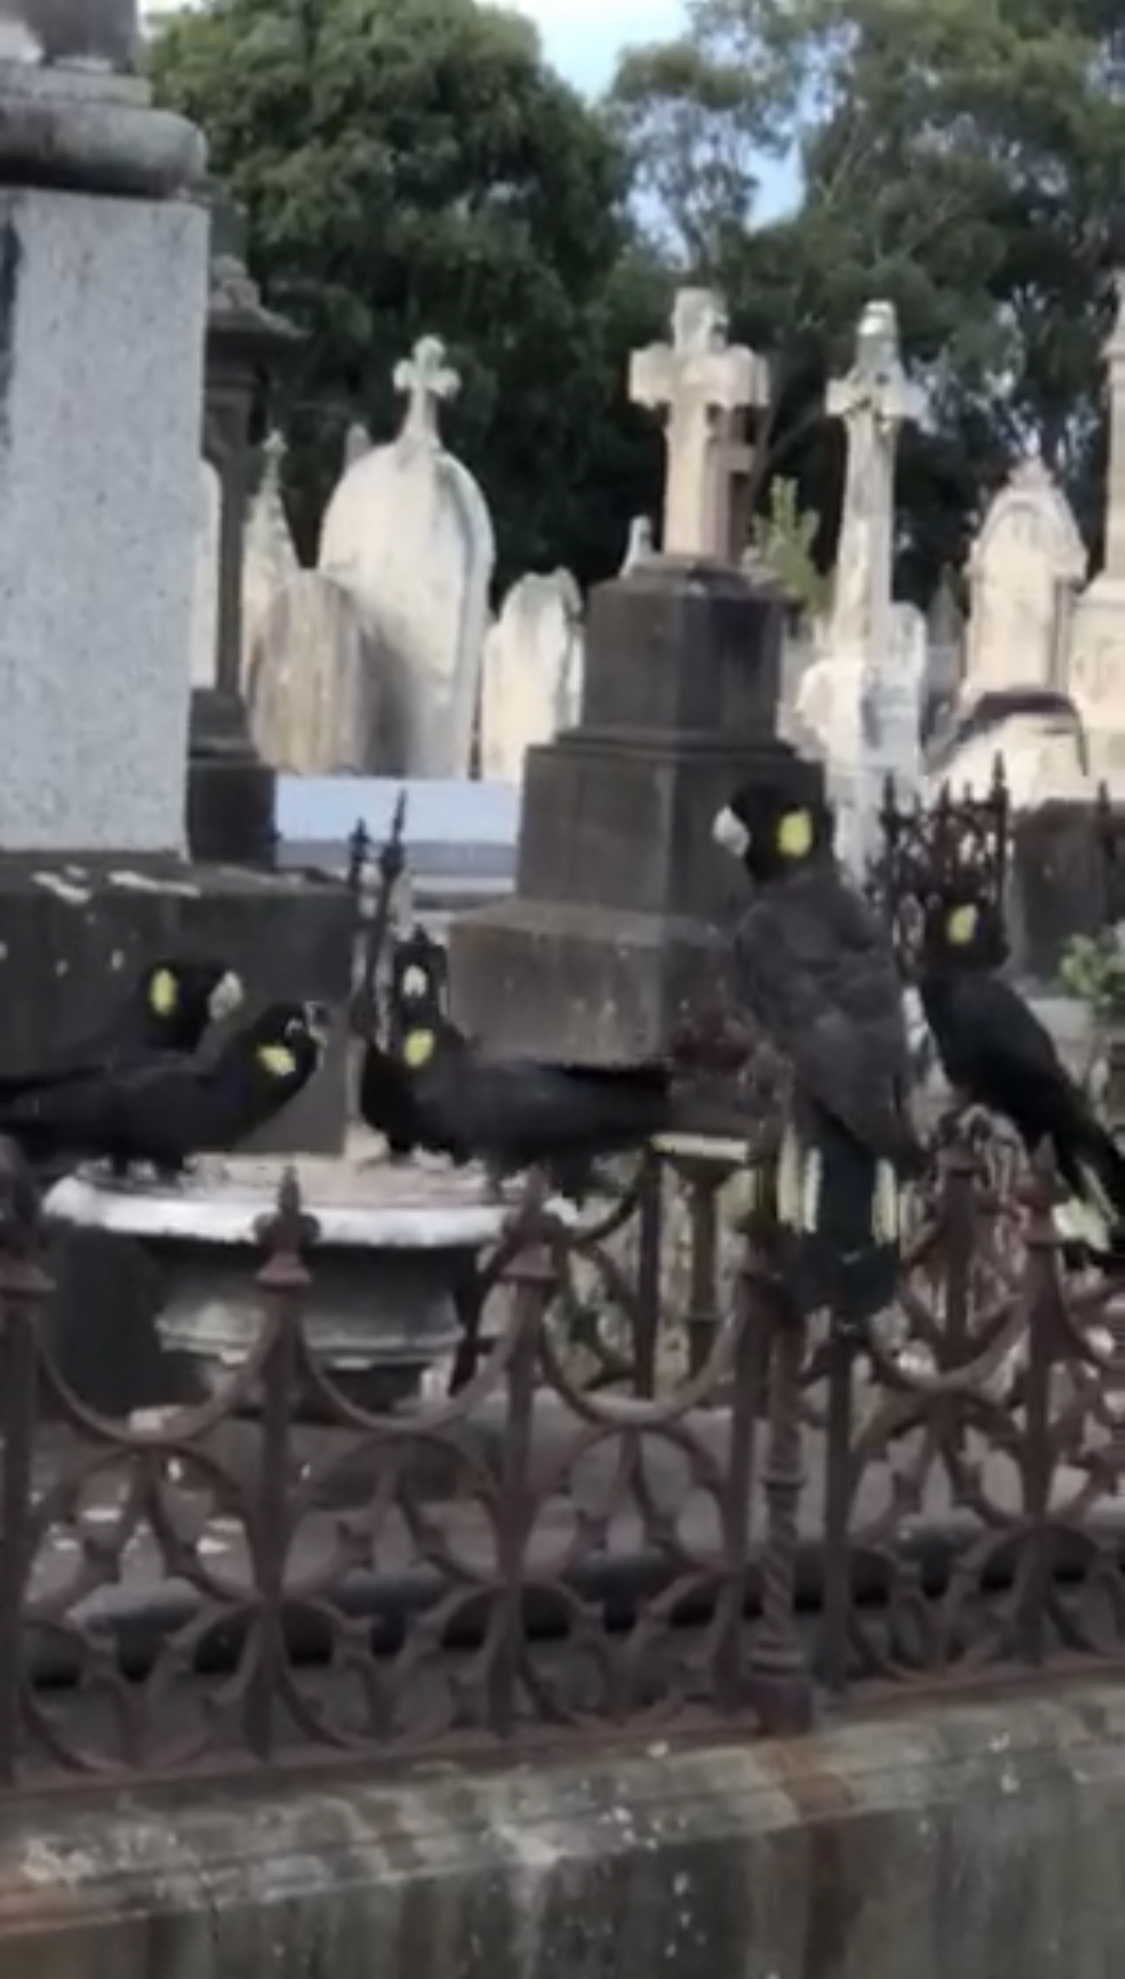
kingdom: Animalia
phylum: Chordata
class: Aves
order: Psittaciformes
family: Cacatuidae
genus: Zanda
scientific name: Zanda funerea
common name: Yellow-tailed black-cockatoo
